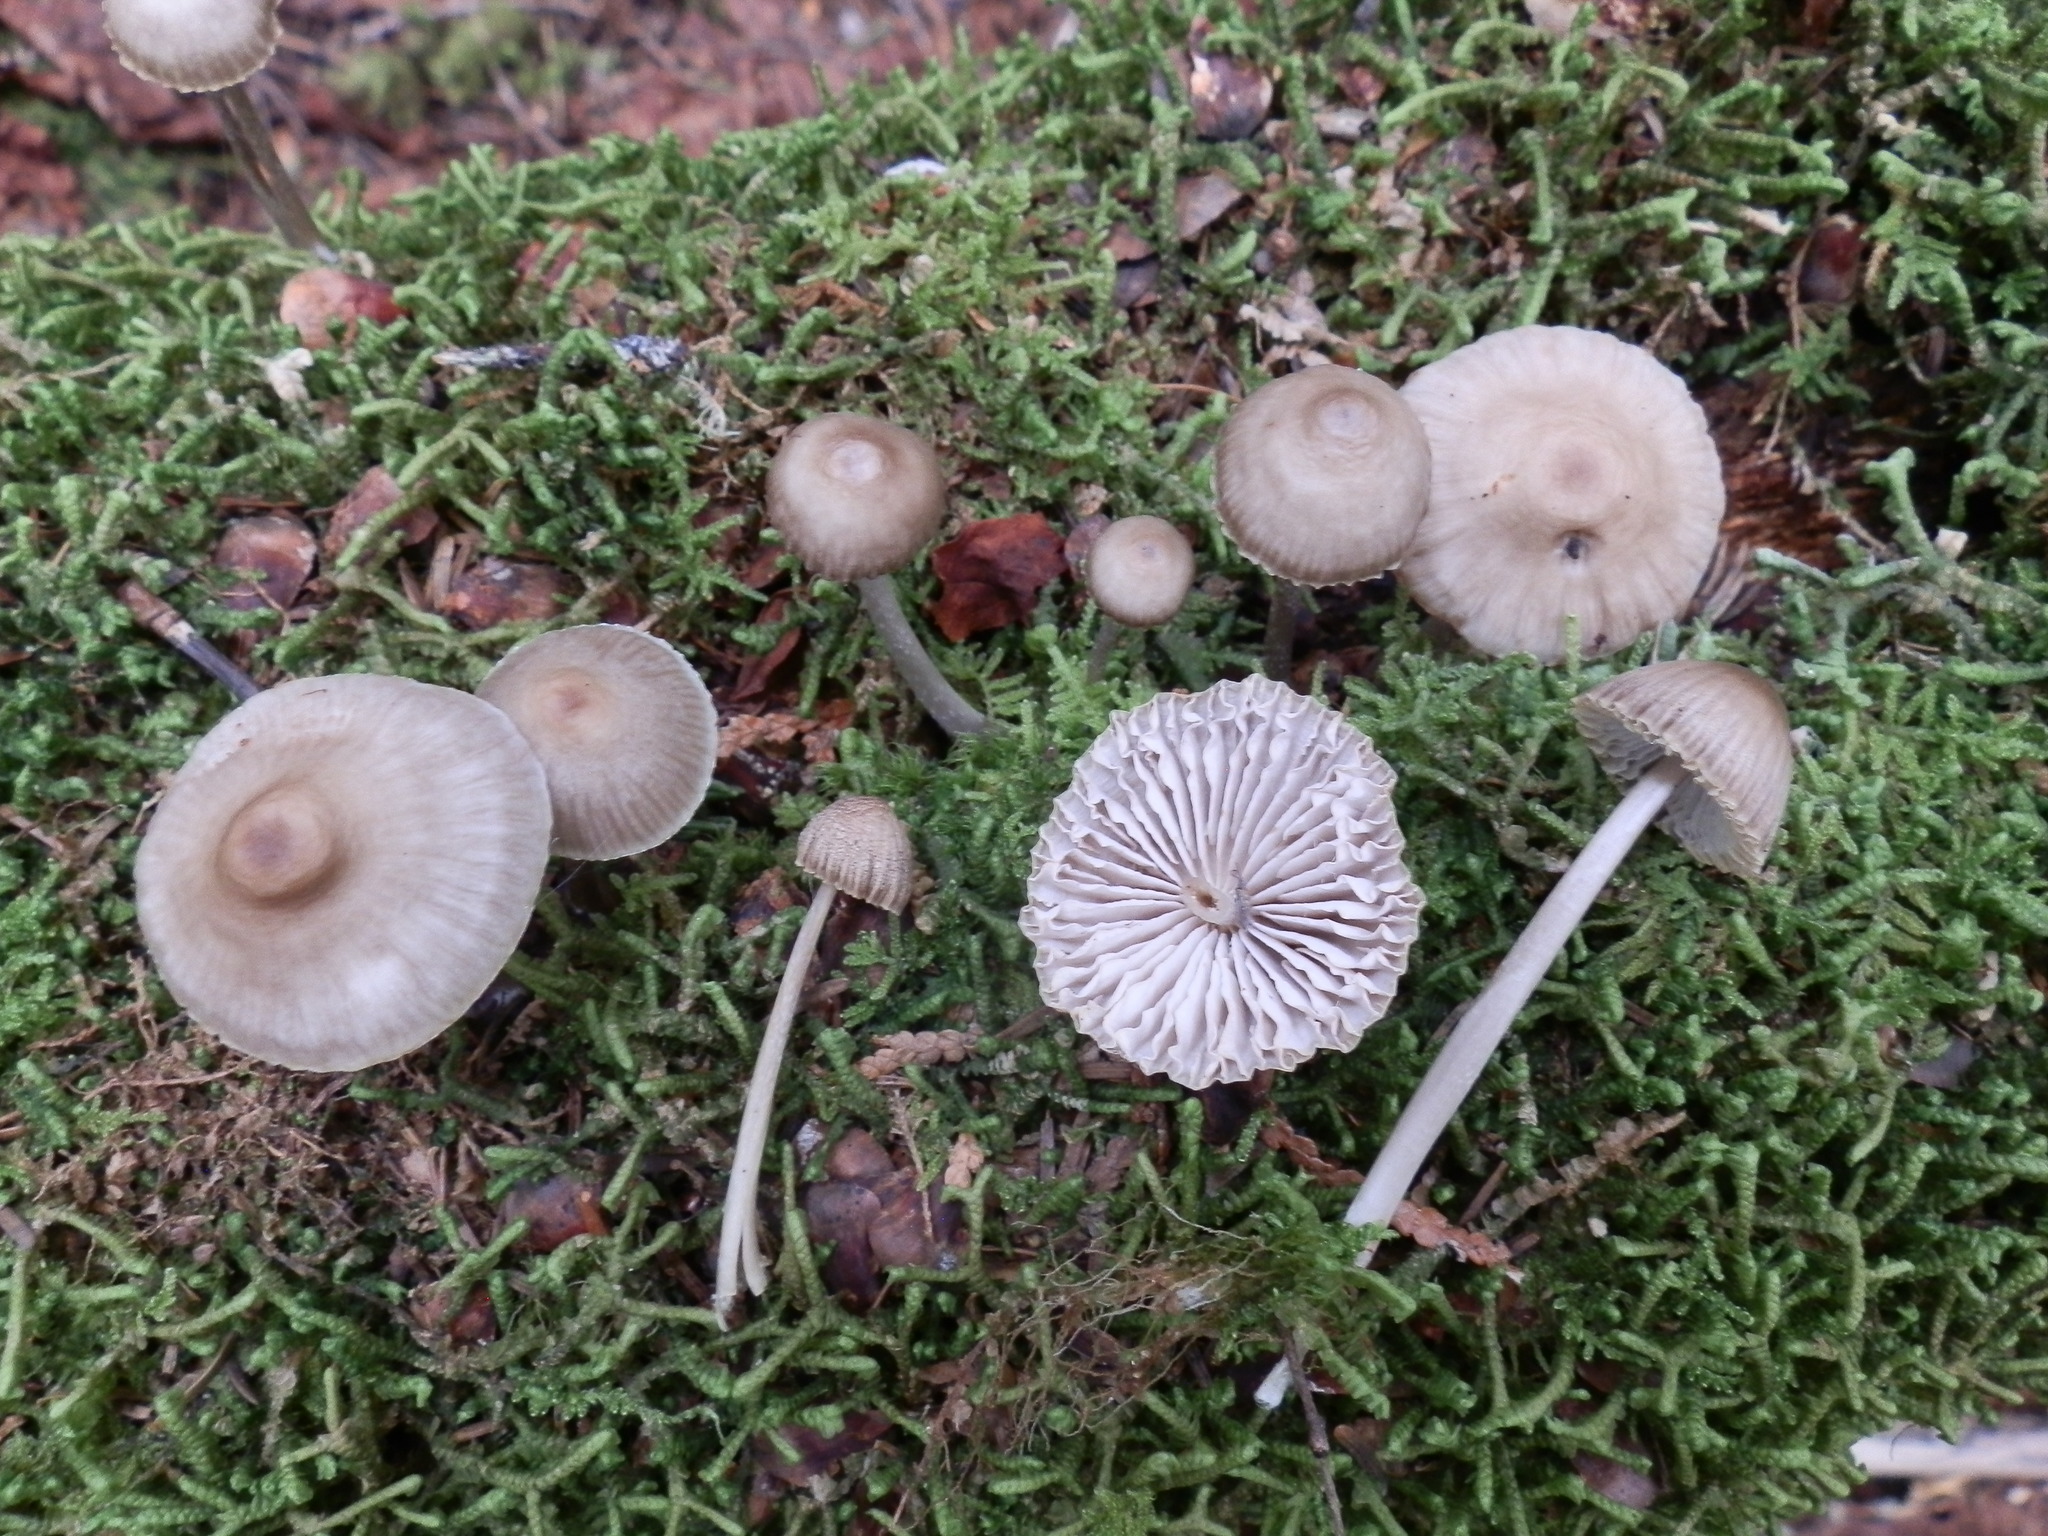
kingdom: Fungi
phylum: Basidiomycota
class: Agaricomycetes
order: Agaricales
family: Mycenaceae
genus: Mycena
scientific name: Mycena niveipes
